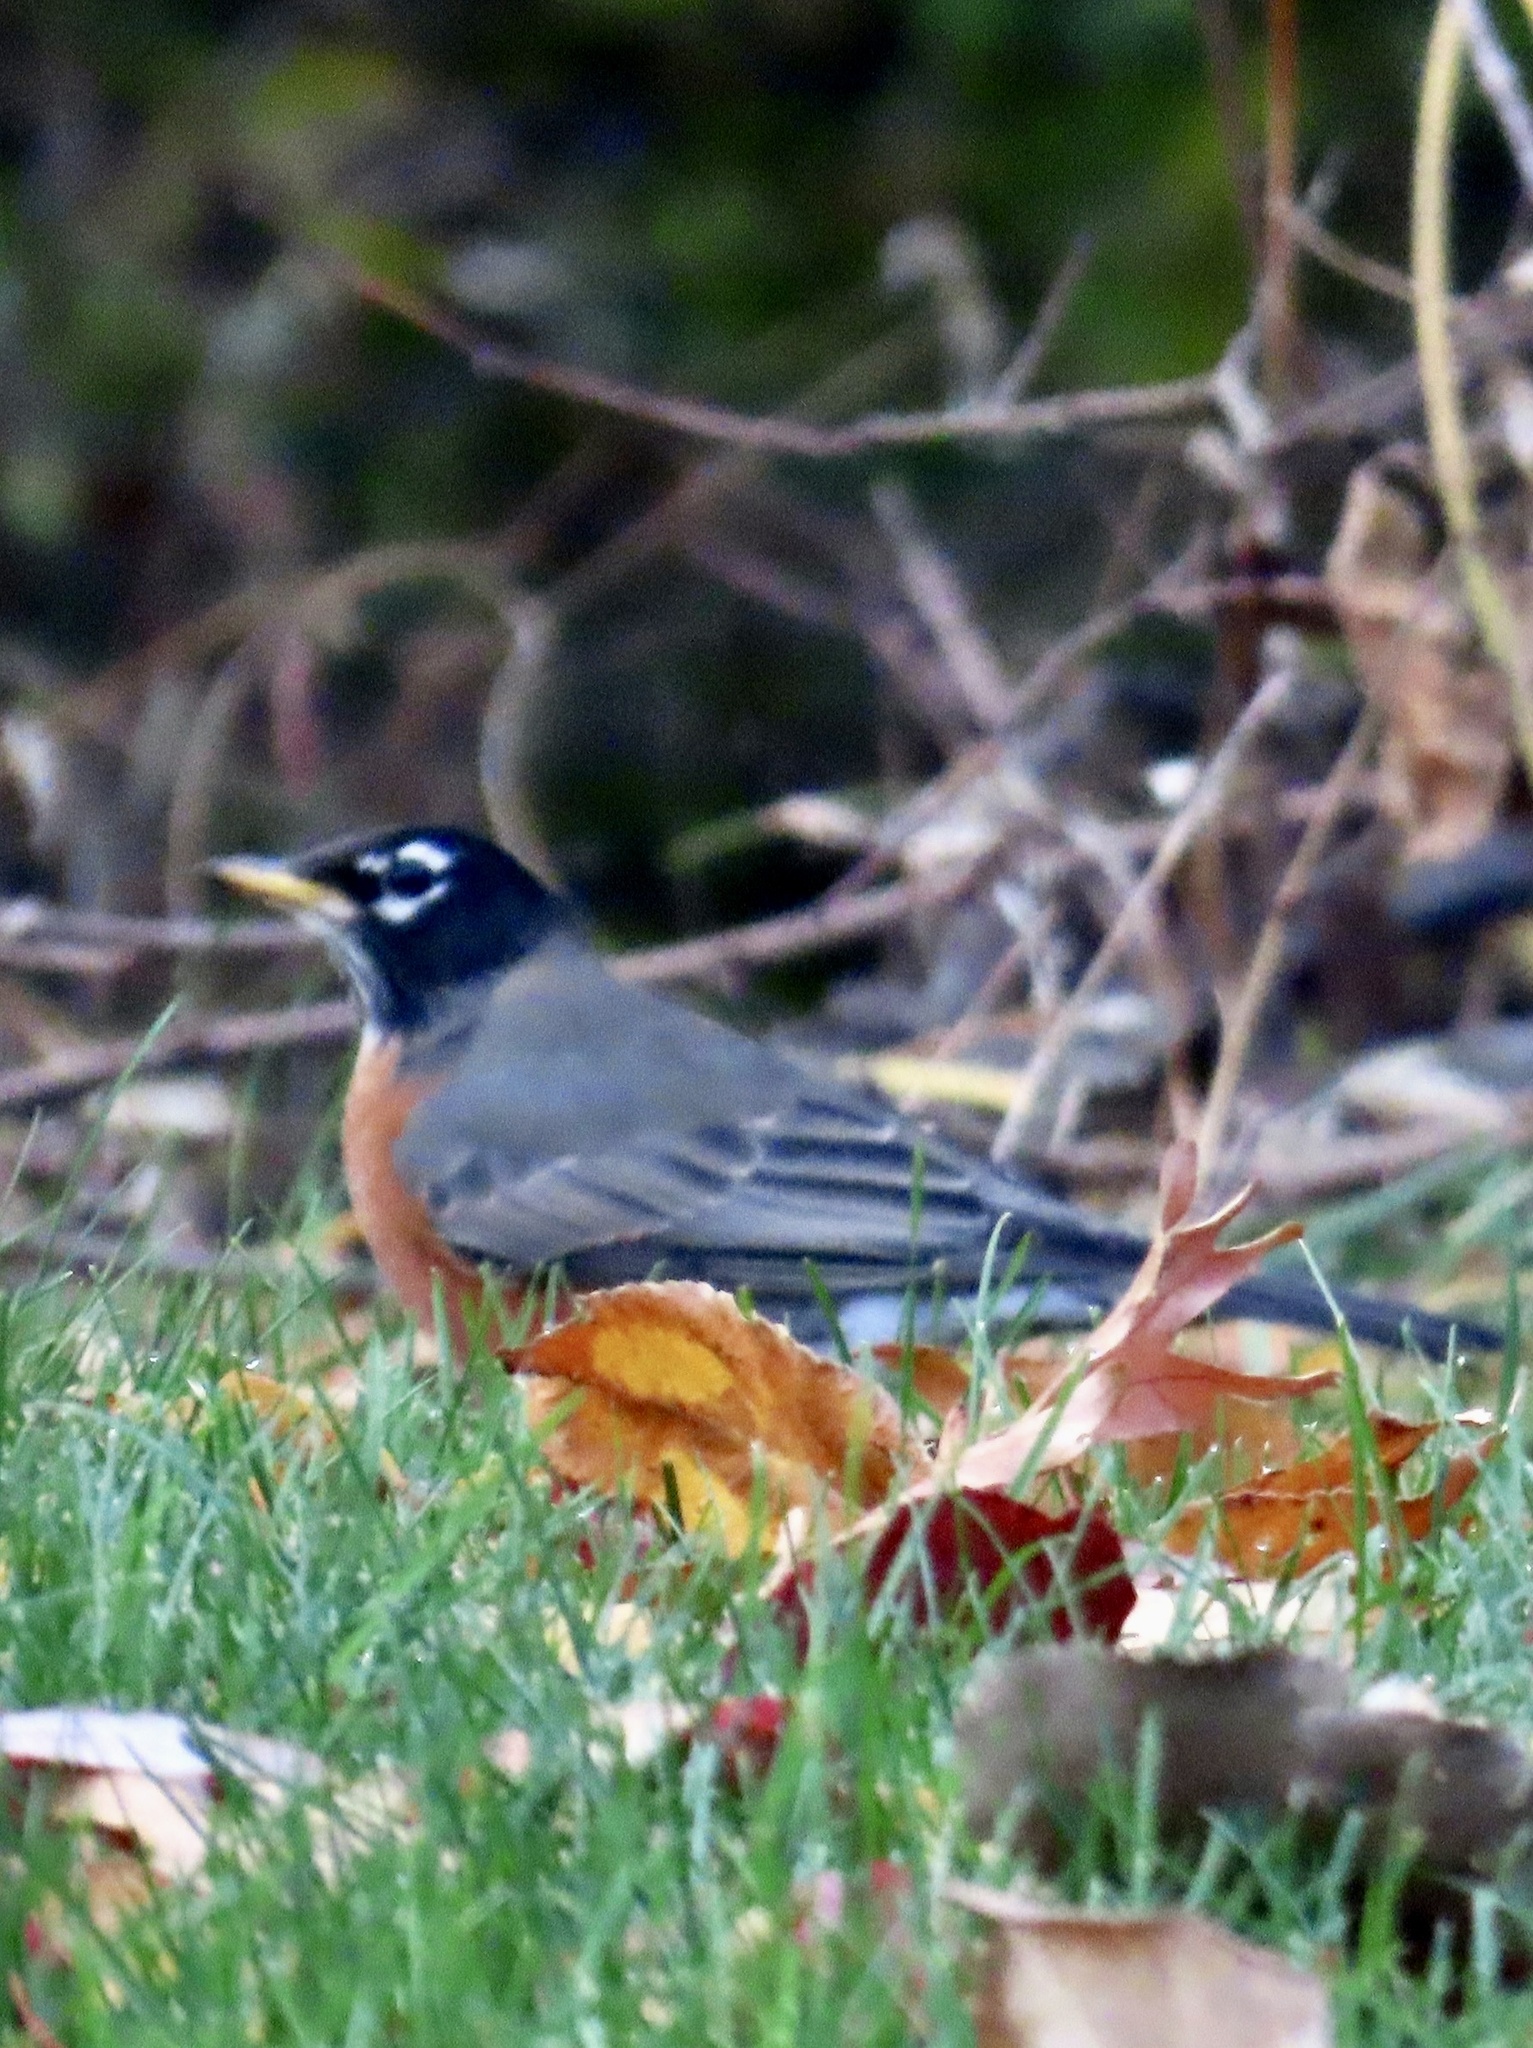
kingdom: Animalia
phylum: Chordata
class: Aves
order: Passeriformes
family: Turdidae
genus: Turdus
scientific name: Turdus migratorius
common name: American robin
